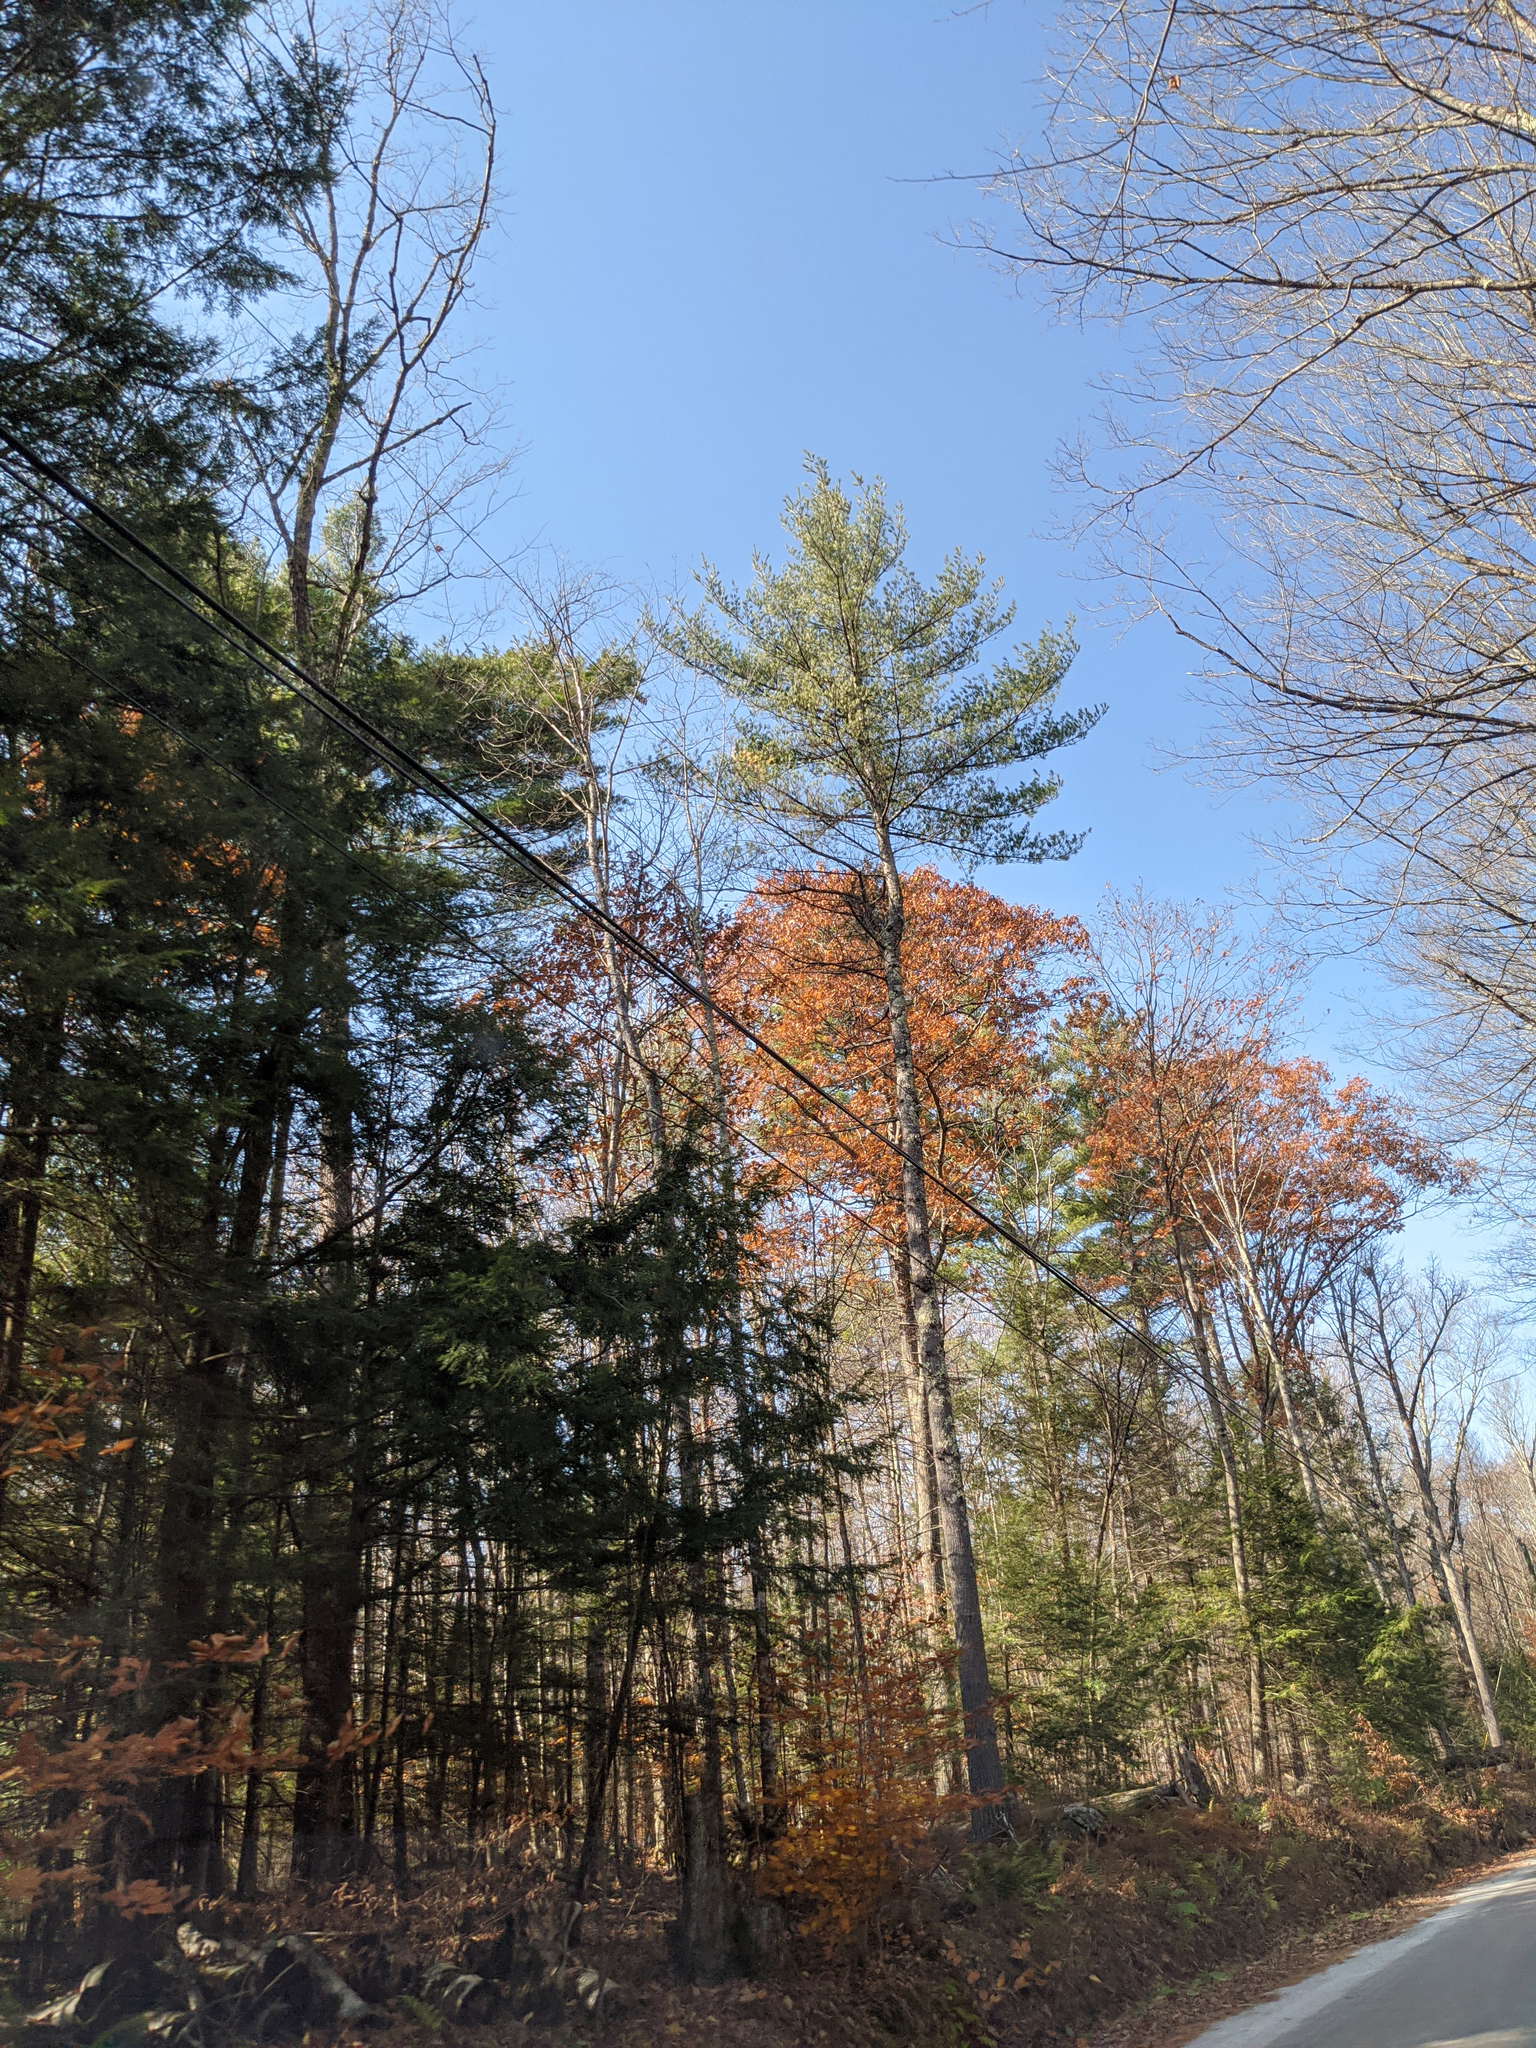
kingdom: Plantae
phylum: Tracheophyta
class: Pinopsida
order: Pinales
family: Pinaceae
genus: Pinus
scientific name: Pinus strobus
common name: Weymouth pine
